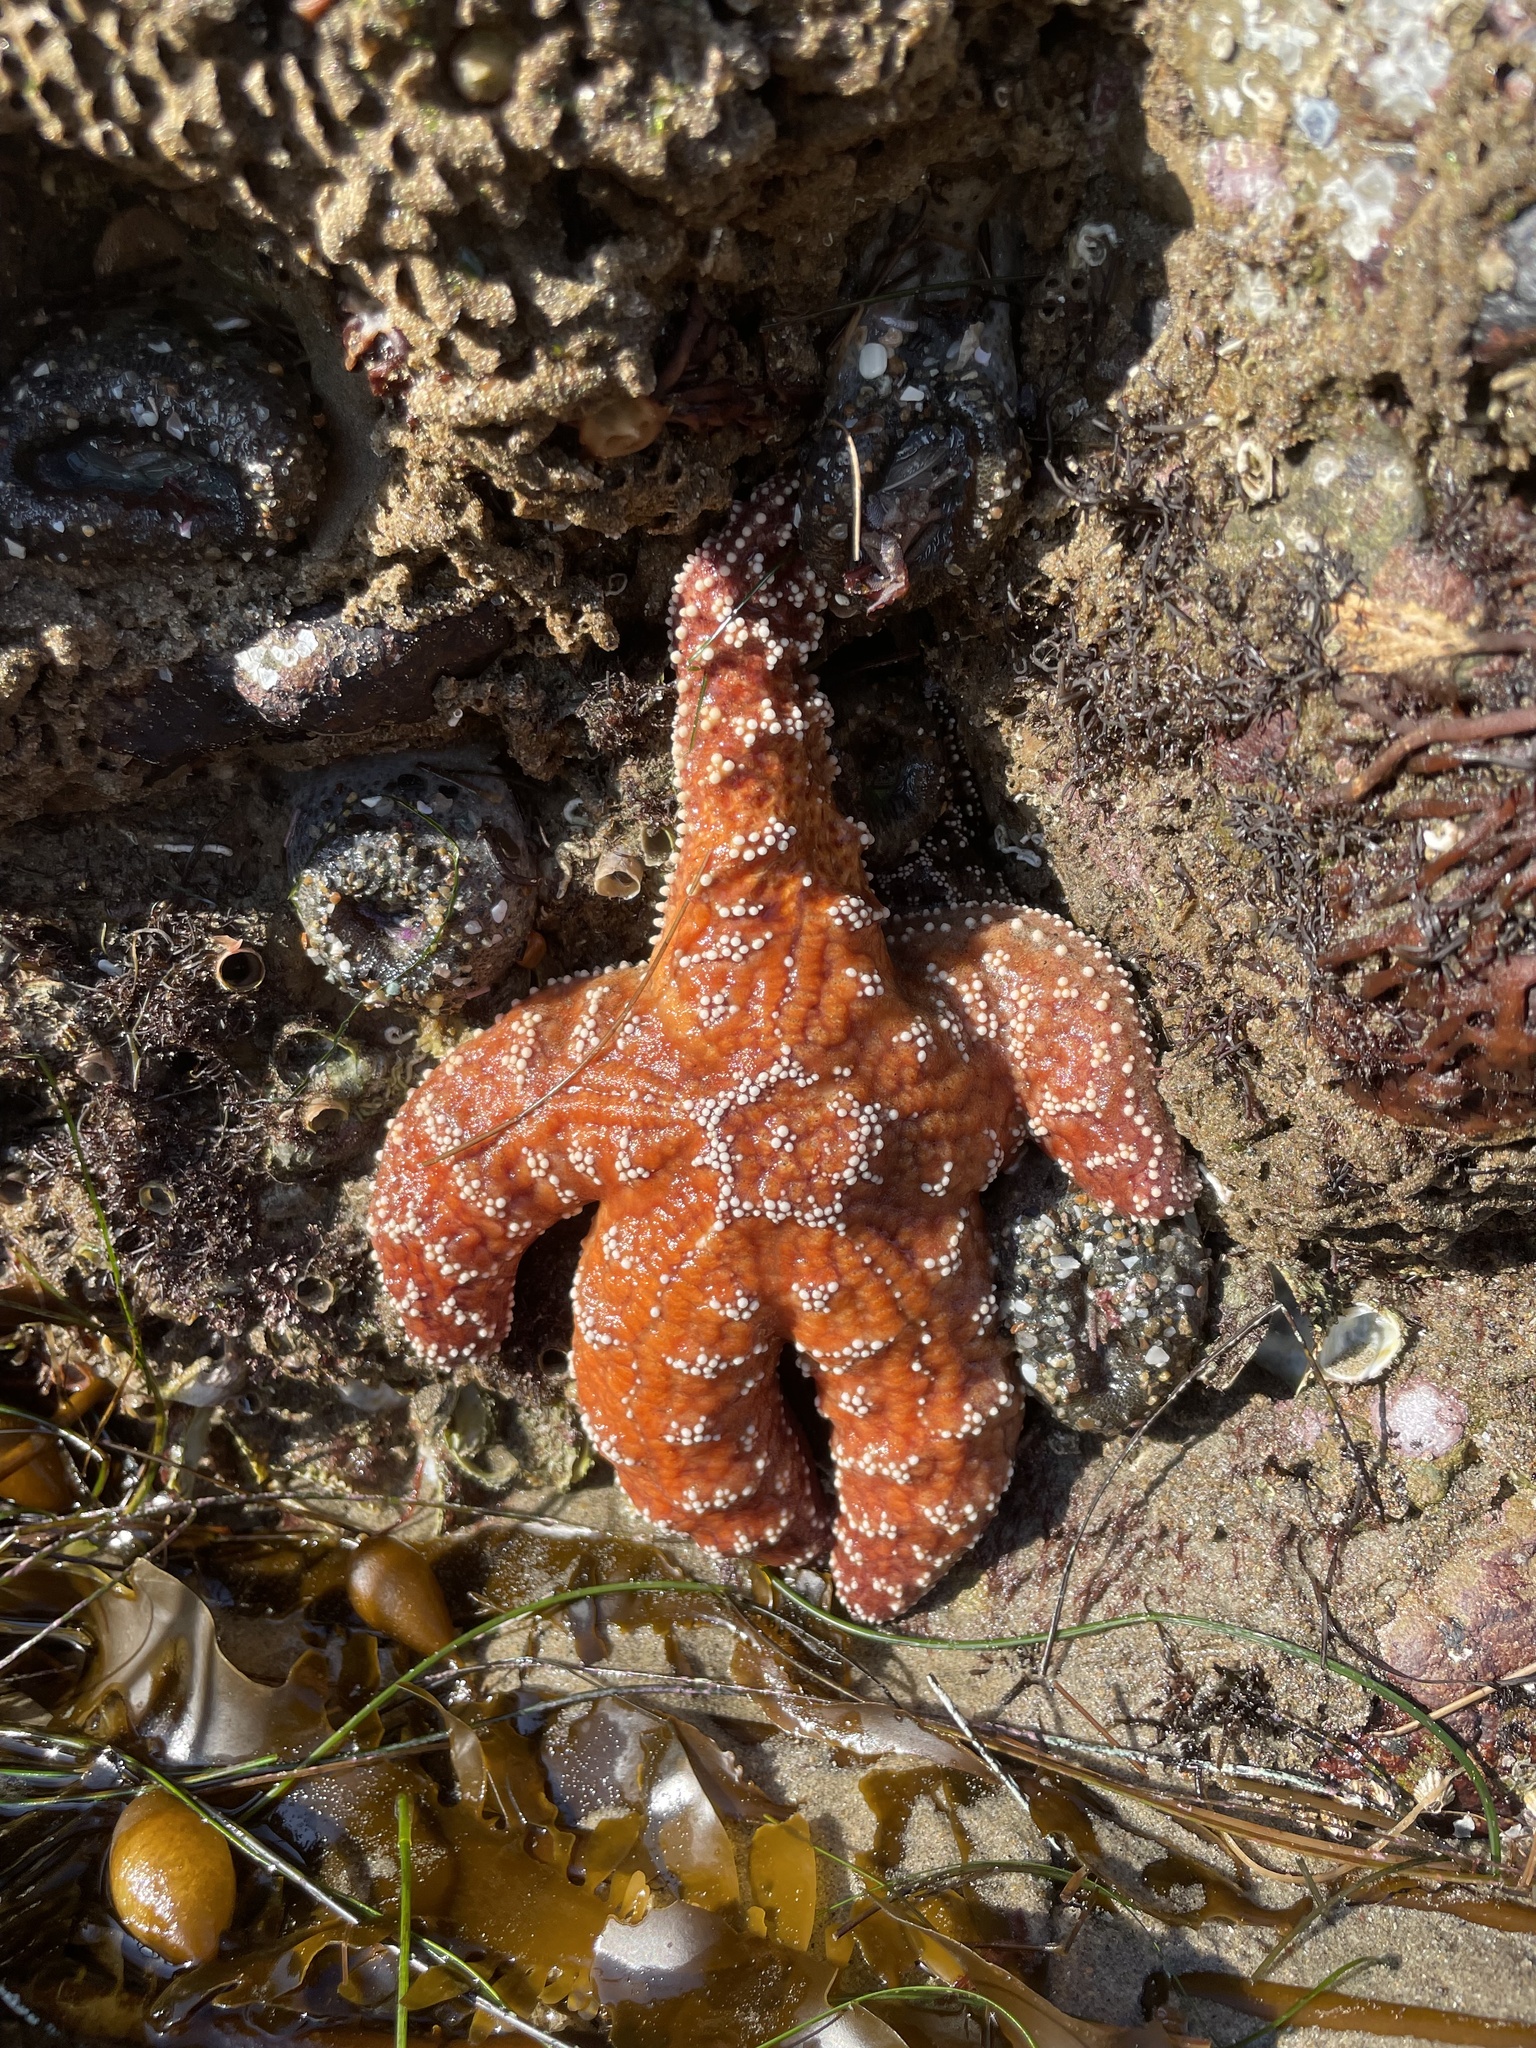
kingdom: Animalia
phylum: Echinodermata
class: Asteroidea
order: Forcipulatida
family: Asteriidae
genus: Pisaster
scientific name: Pisaster ochraceus
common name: Ochre stars
